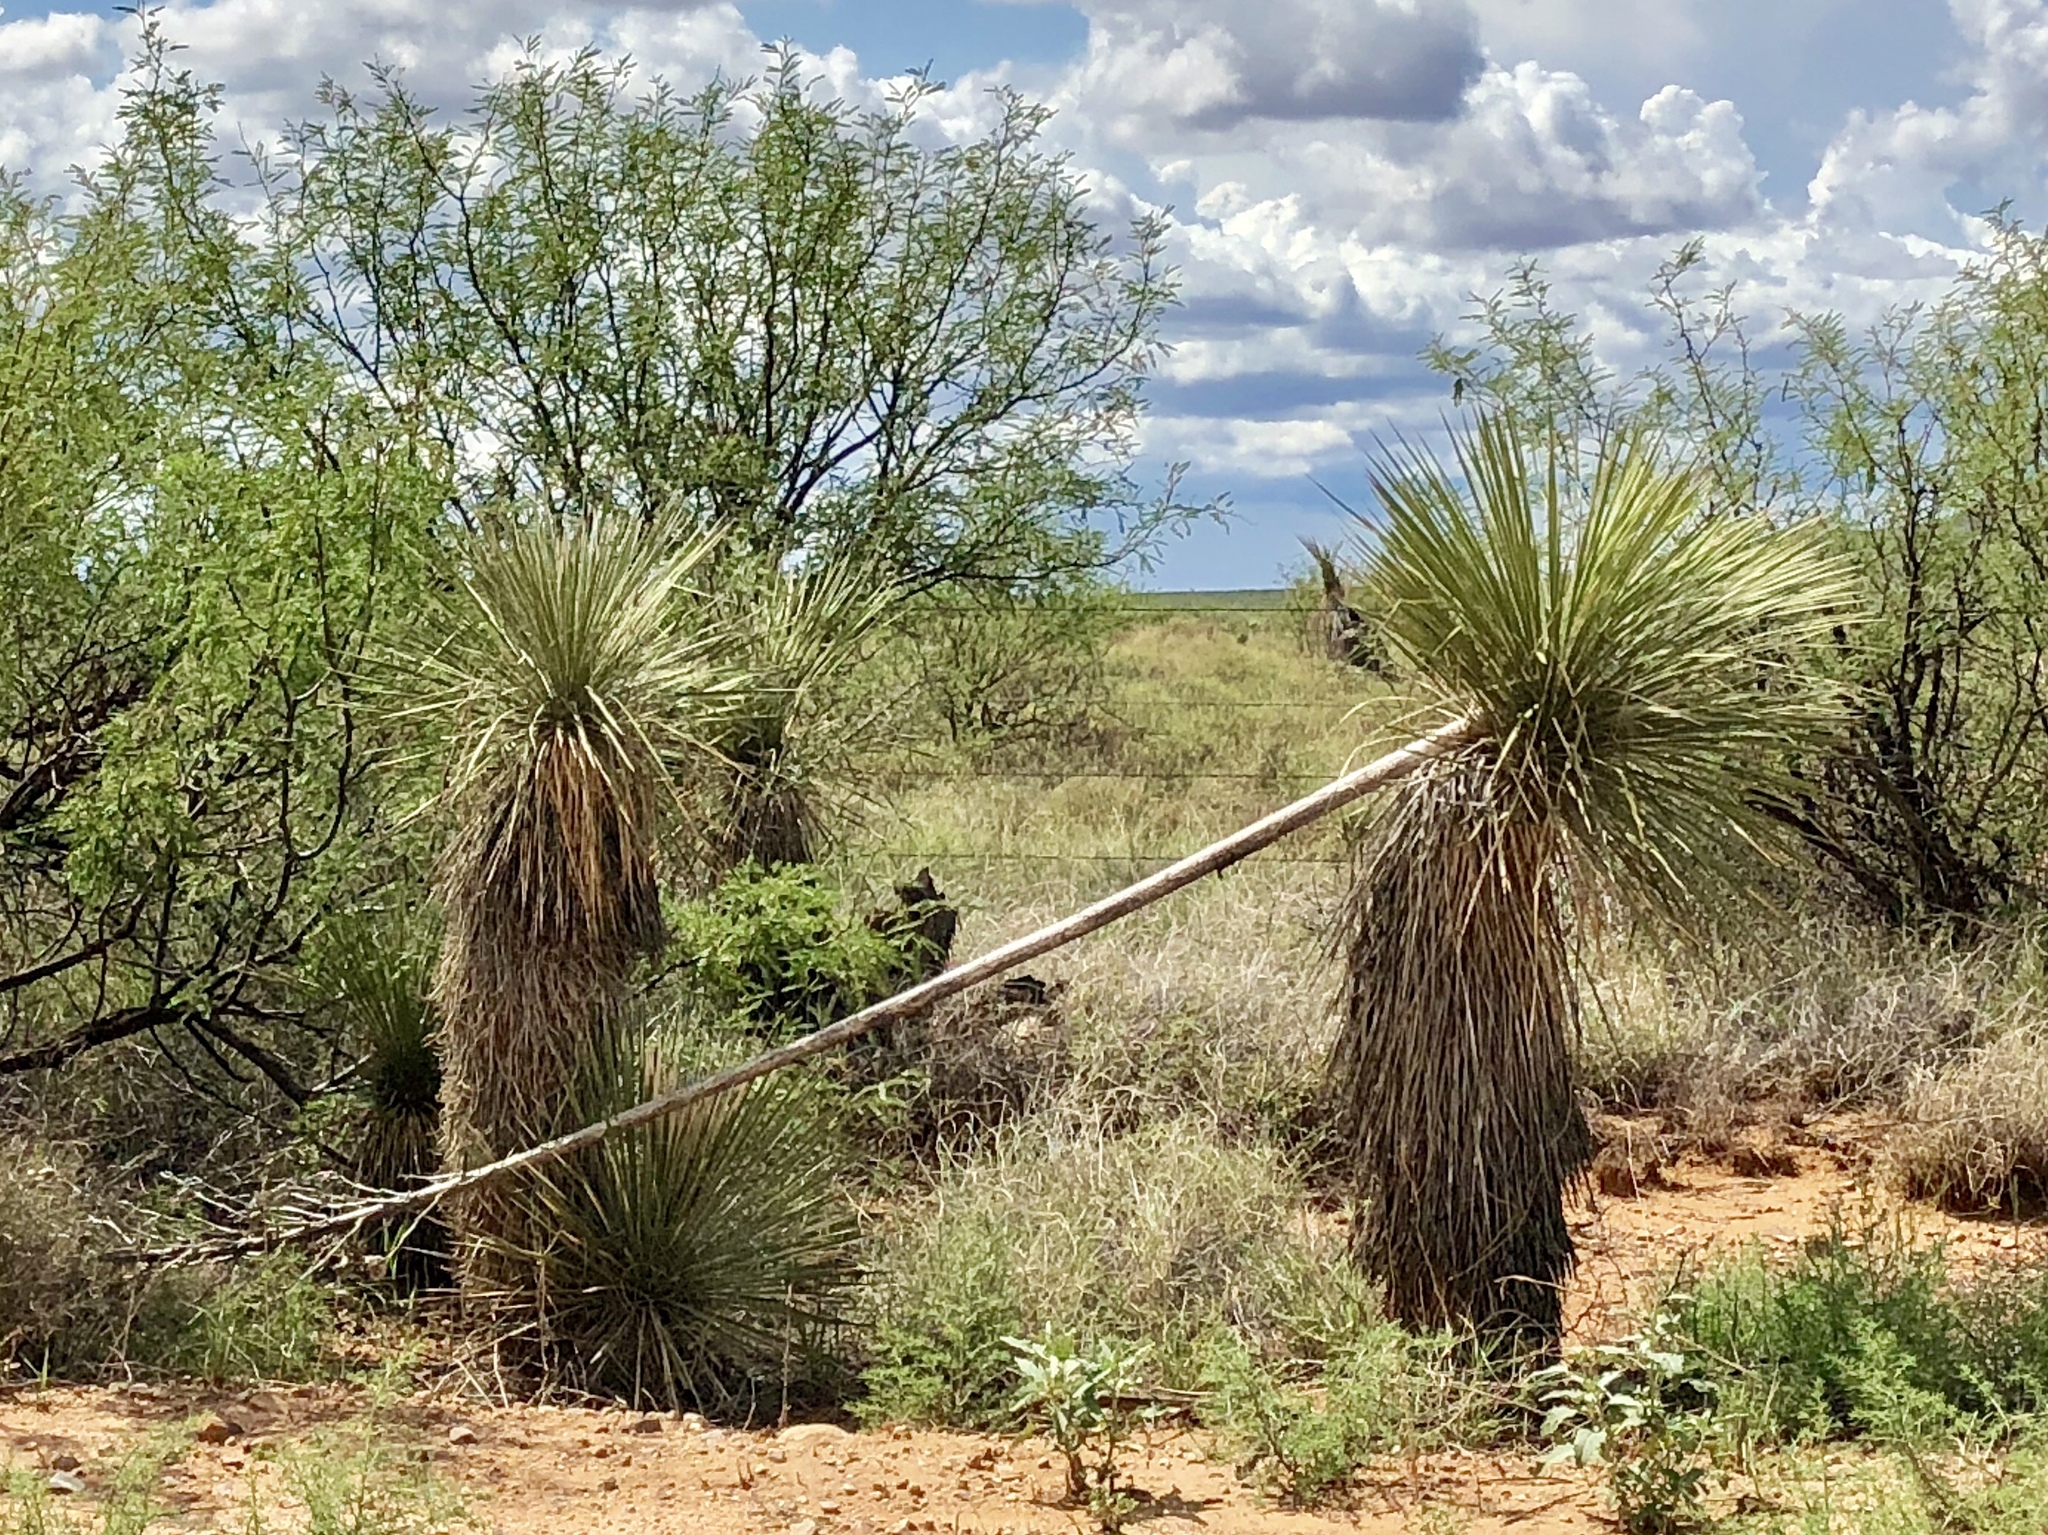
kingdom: Plantae
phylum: Tracheophyta
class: Liliopsida
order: Asparagales
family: Asparagaceae
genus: Yucca
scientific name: Yucca elata
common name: Palmella
